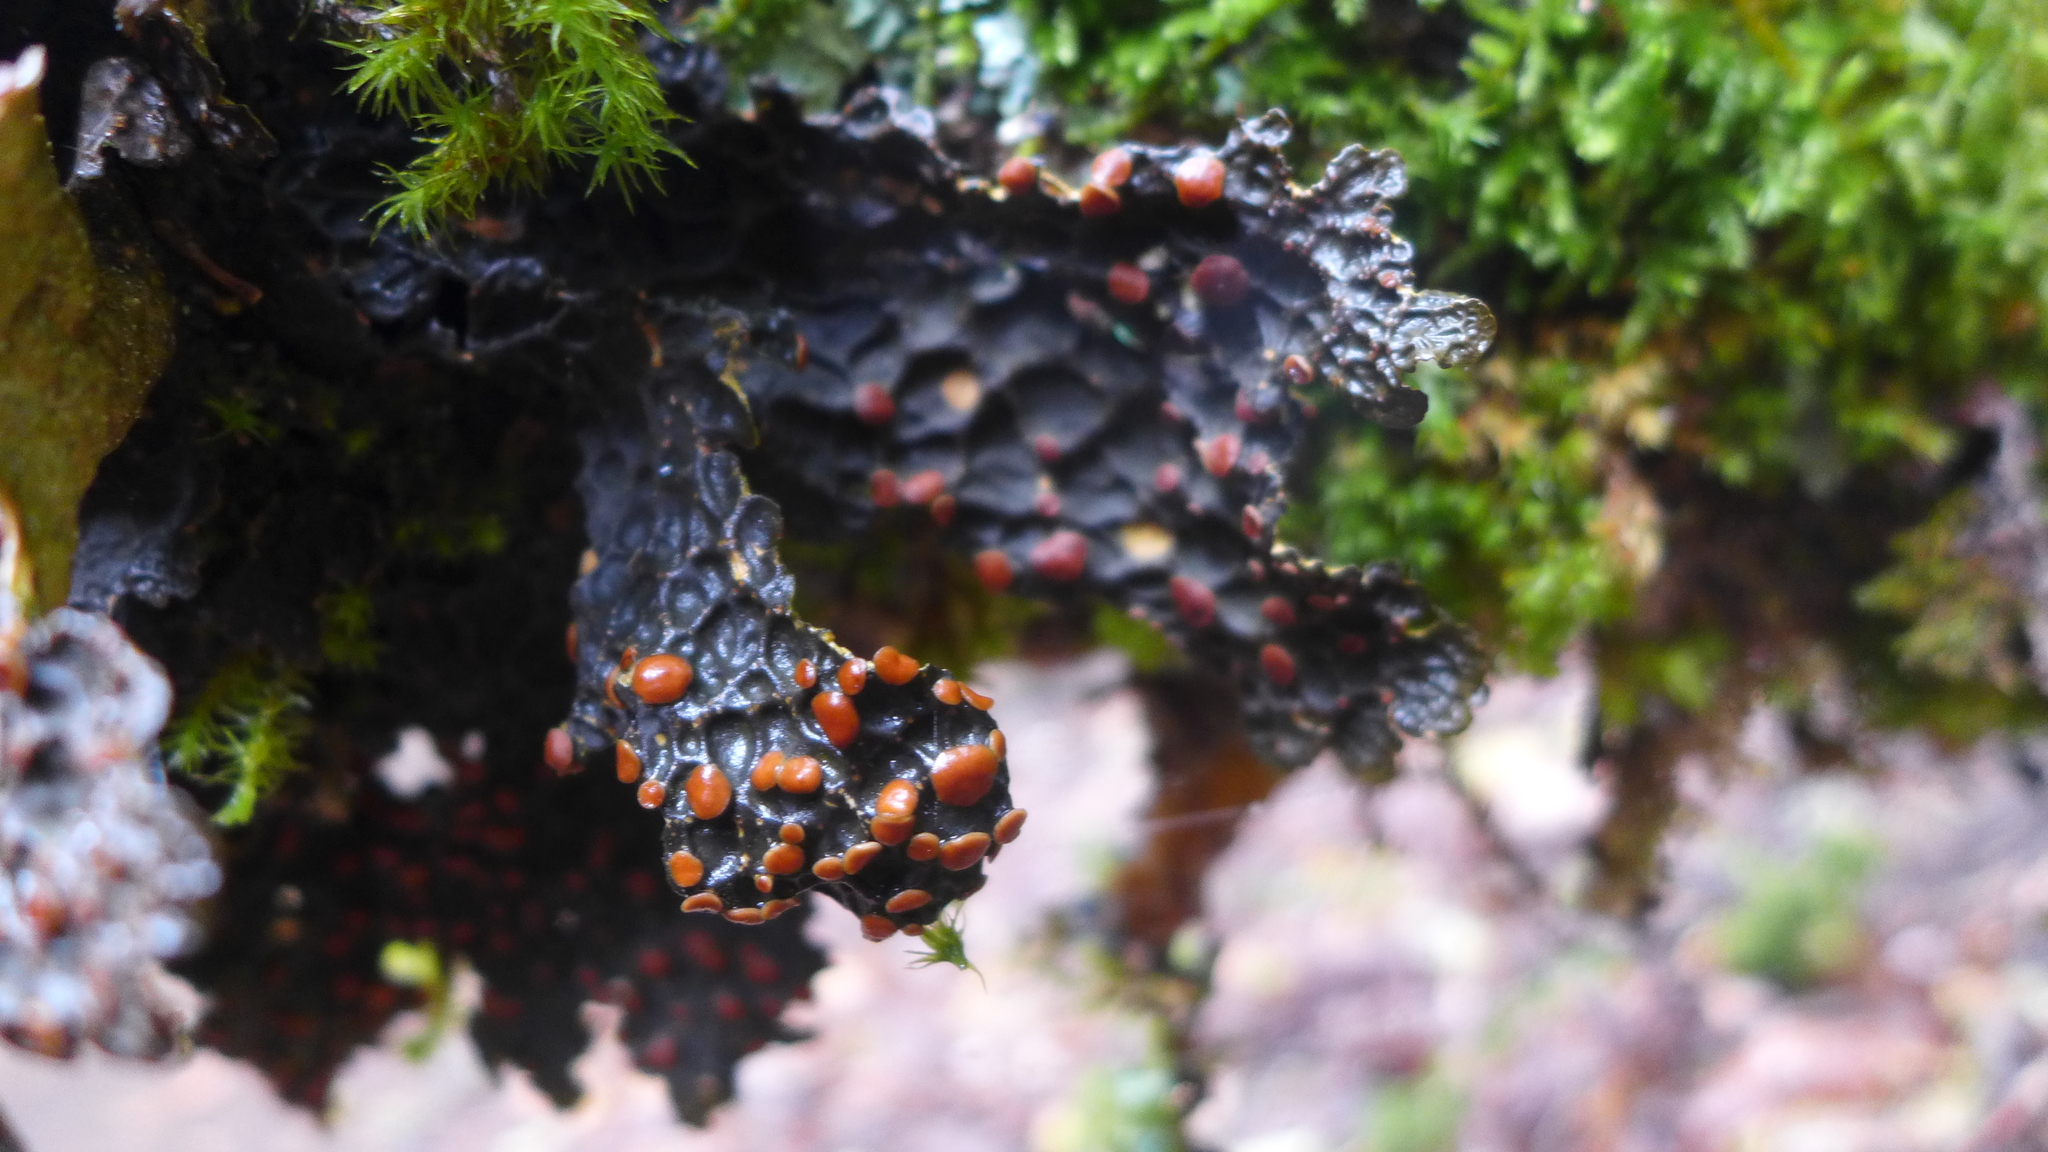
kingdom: Fungi
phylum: Ascomycota
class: Lecanoromycetes
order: Peltigerales
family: Lobariaceae
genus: Lobaria
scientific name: Lobaria anthraspis
